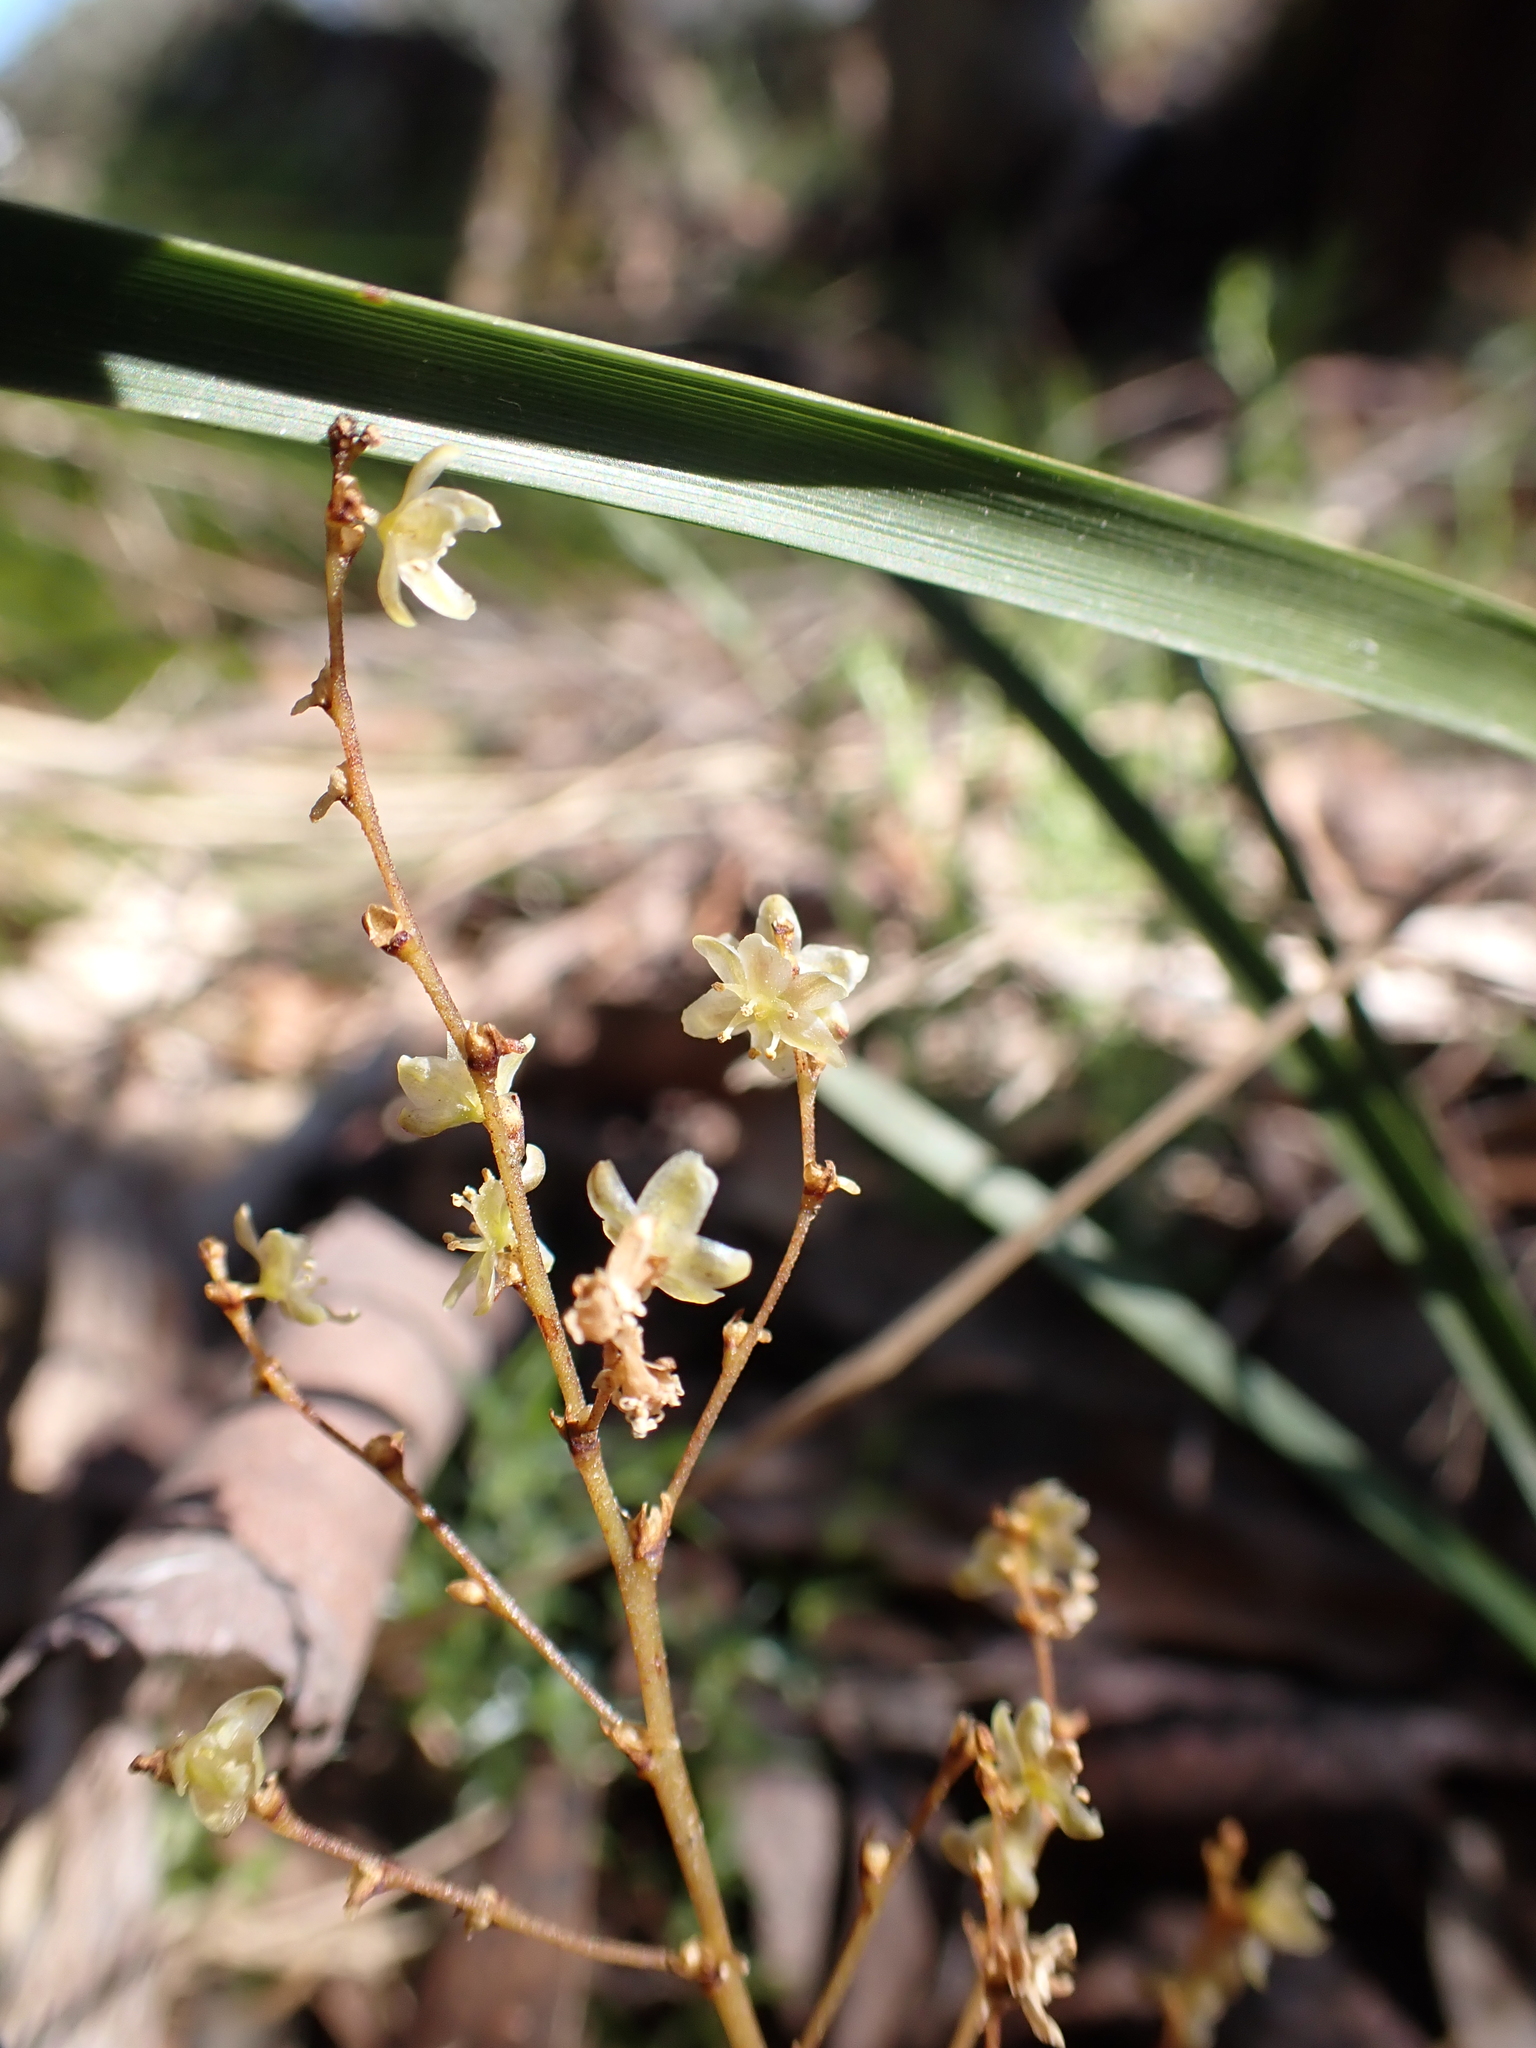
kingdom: Plantae
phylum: Tracheophyta
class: Liliopsida
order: Asparagales
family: Asparagaceae
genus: Lomandra
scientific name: Lomandra micrantha
